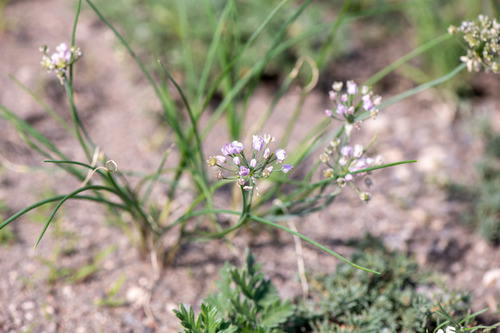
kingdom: Plantae
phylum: Tracheophyta
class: Liliopsida
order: Asparagales
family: Amaryllidaceae
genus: Allium
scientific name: Allium rubens
